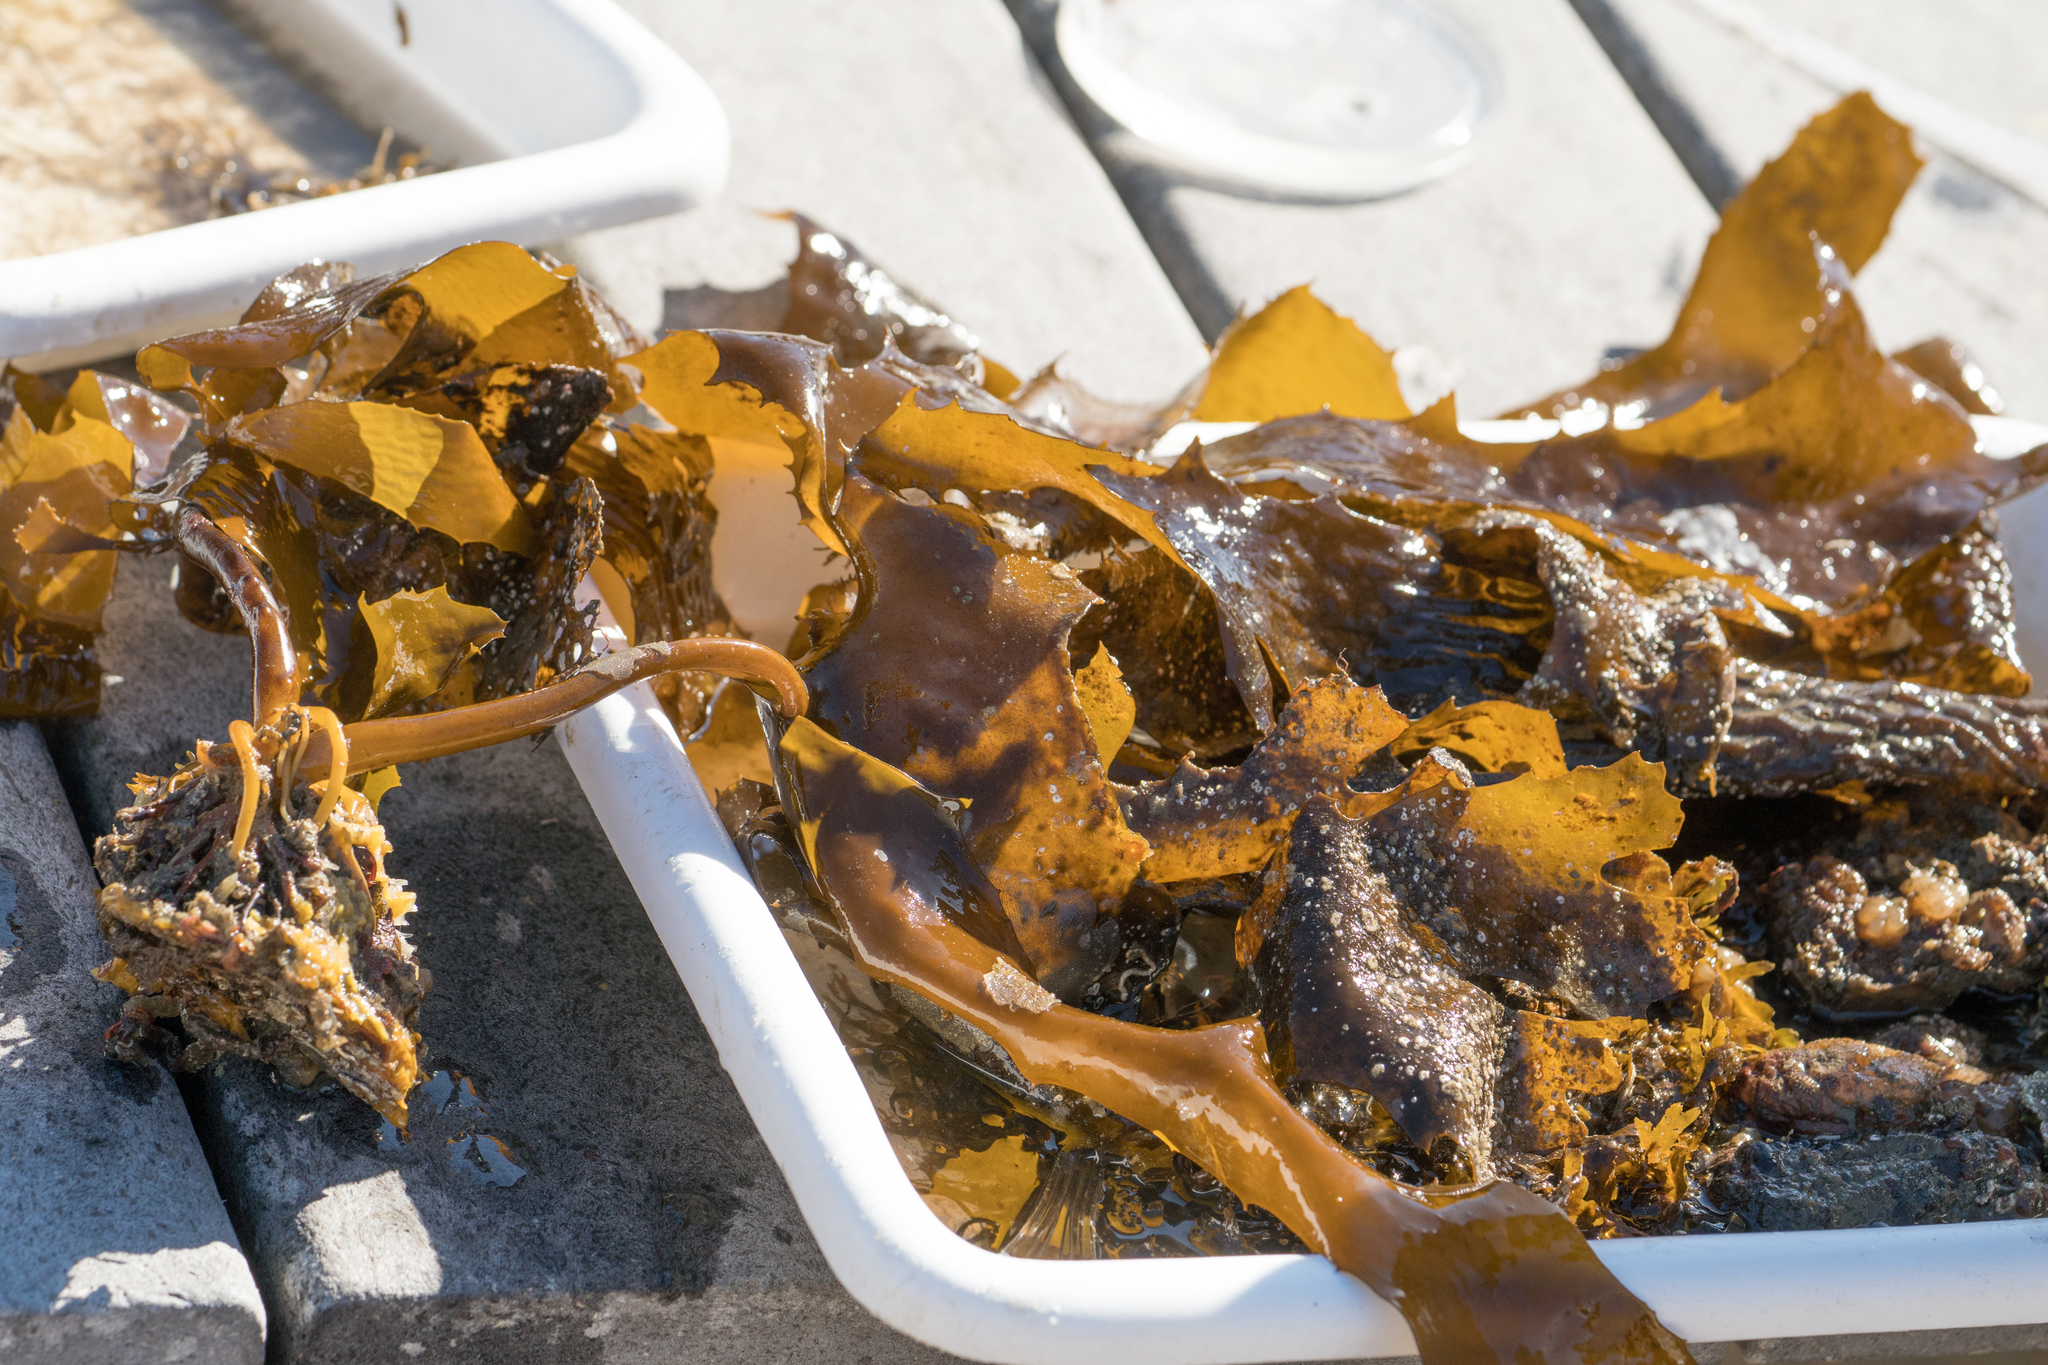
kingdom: Chromista
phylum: Ochrophyta
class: Phaeophyceae
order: Laminariales
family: Lessoniaceae
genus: Eisenia
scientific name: Eisenia arborea
